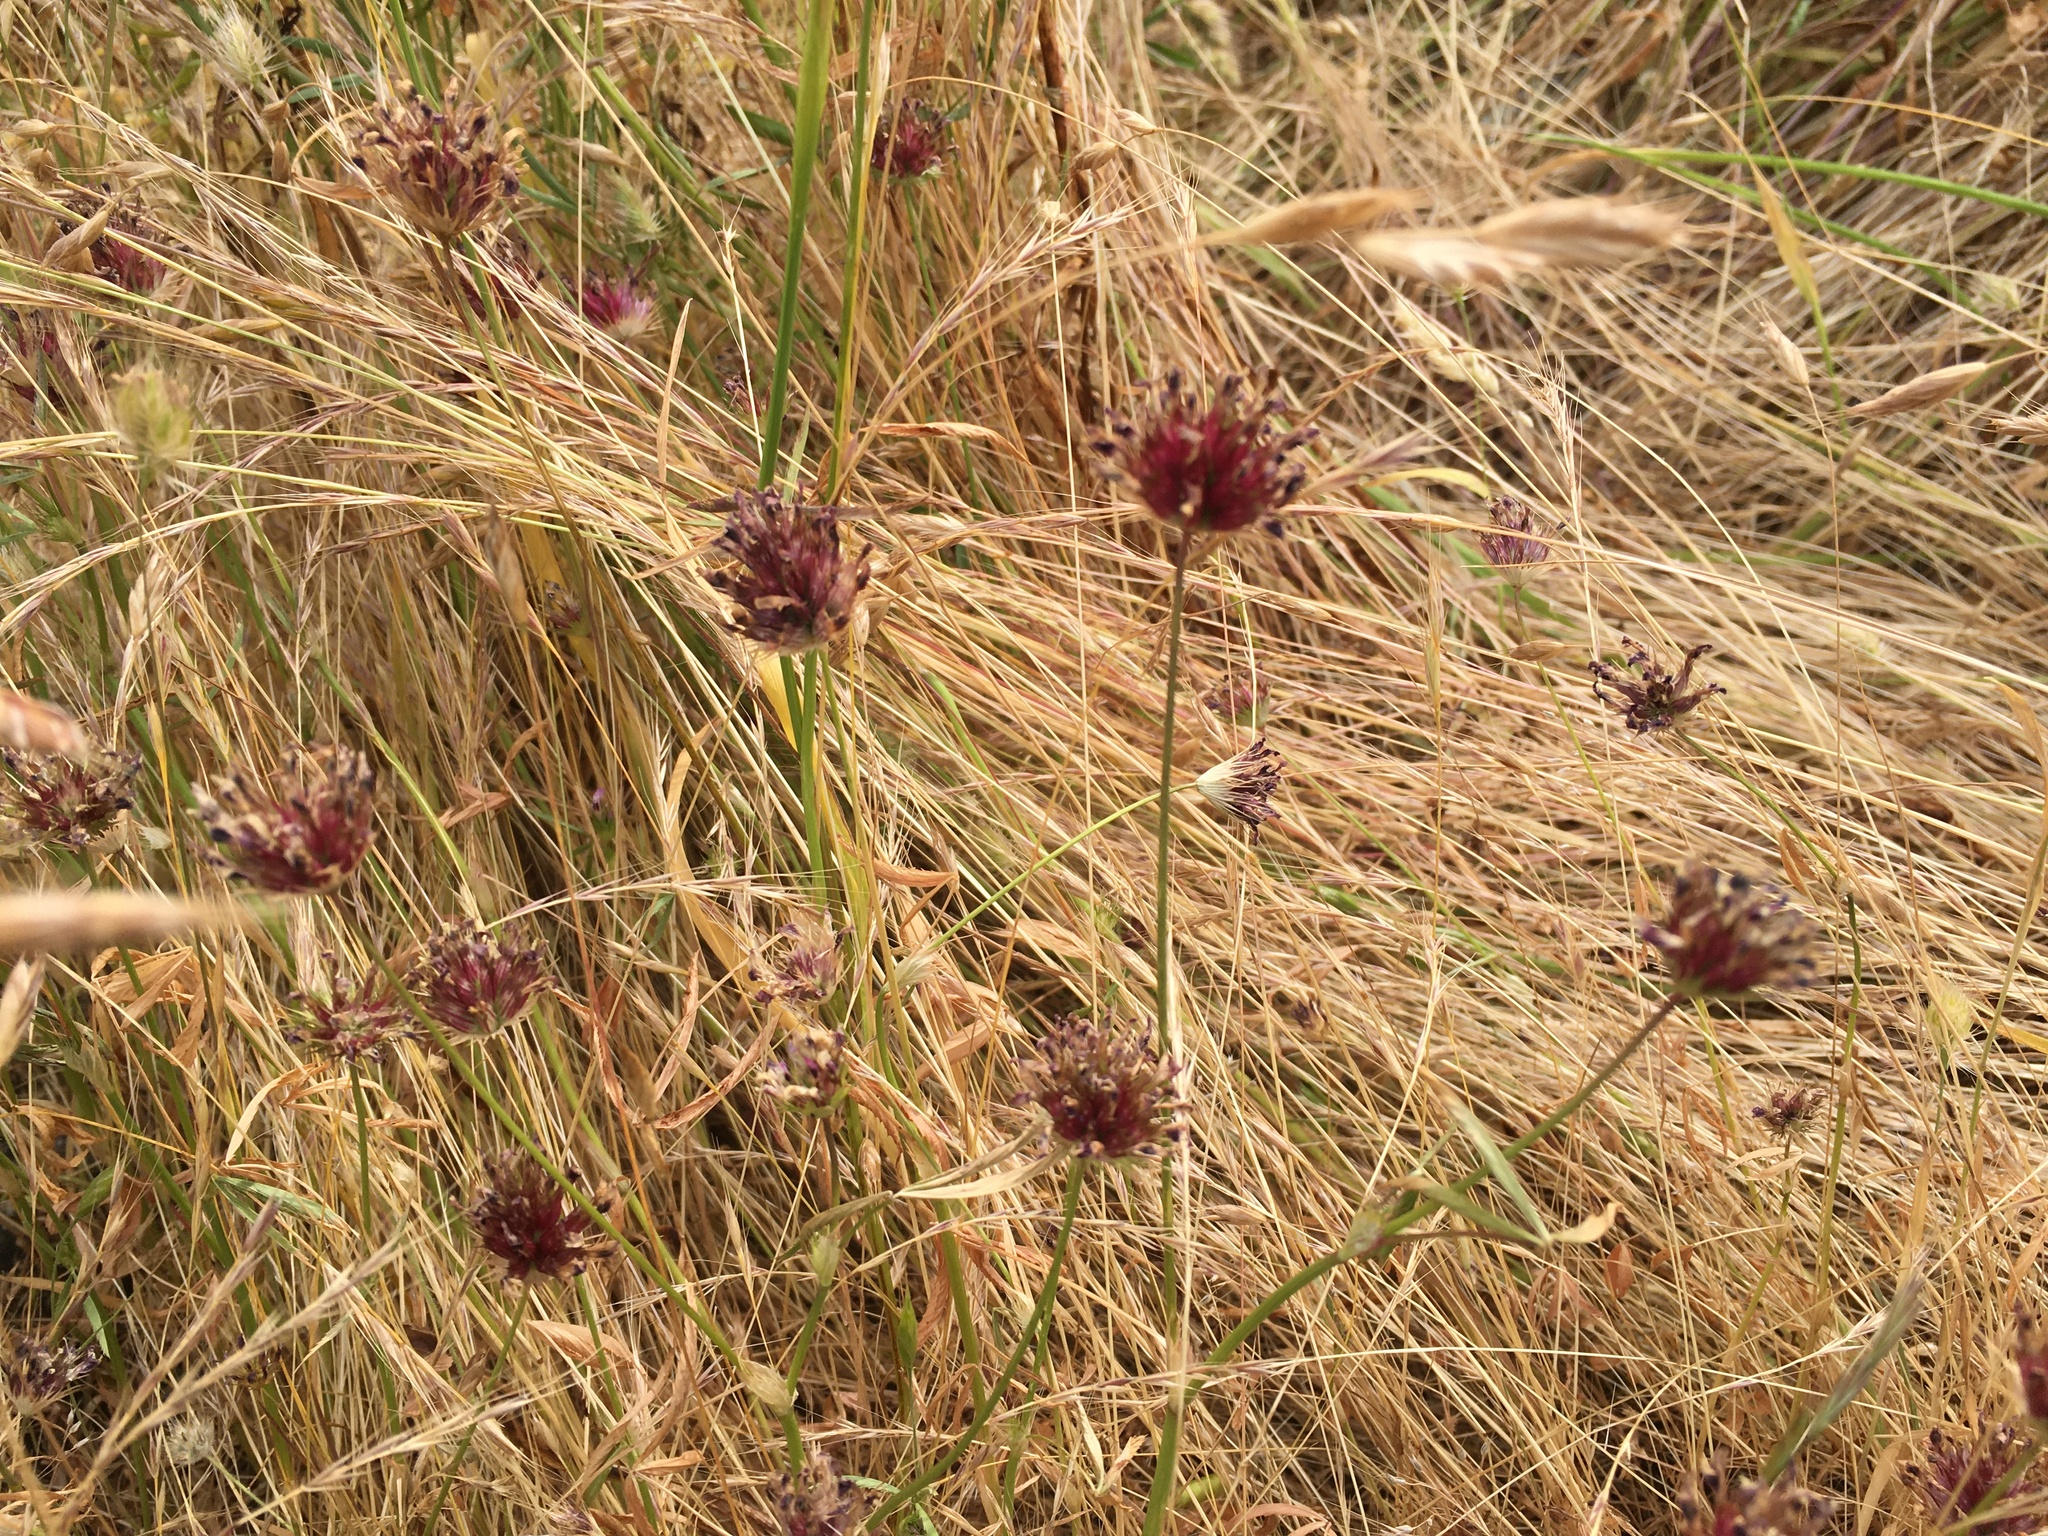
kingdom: Plantae
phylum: Tracheophyta
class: Magnoliopsida
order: Fabales
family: Fabaceae
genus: Trifolium
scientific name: Trifolium willdenovii
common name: Tomcat clover
